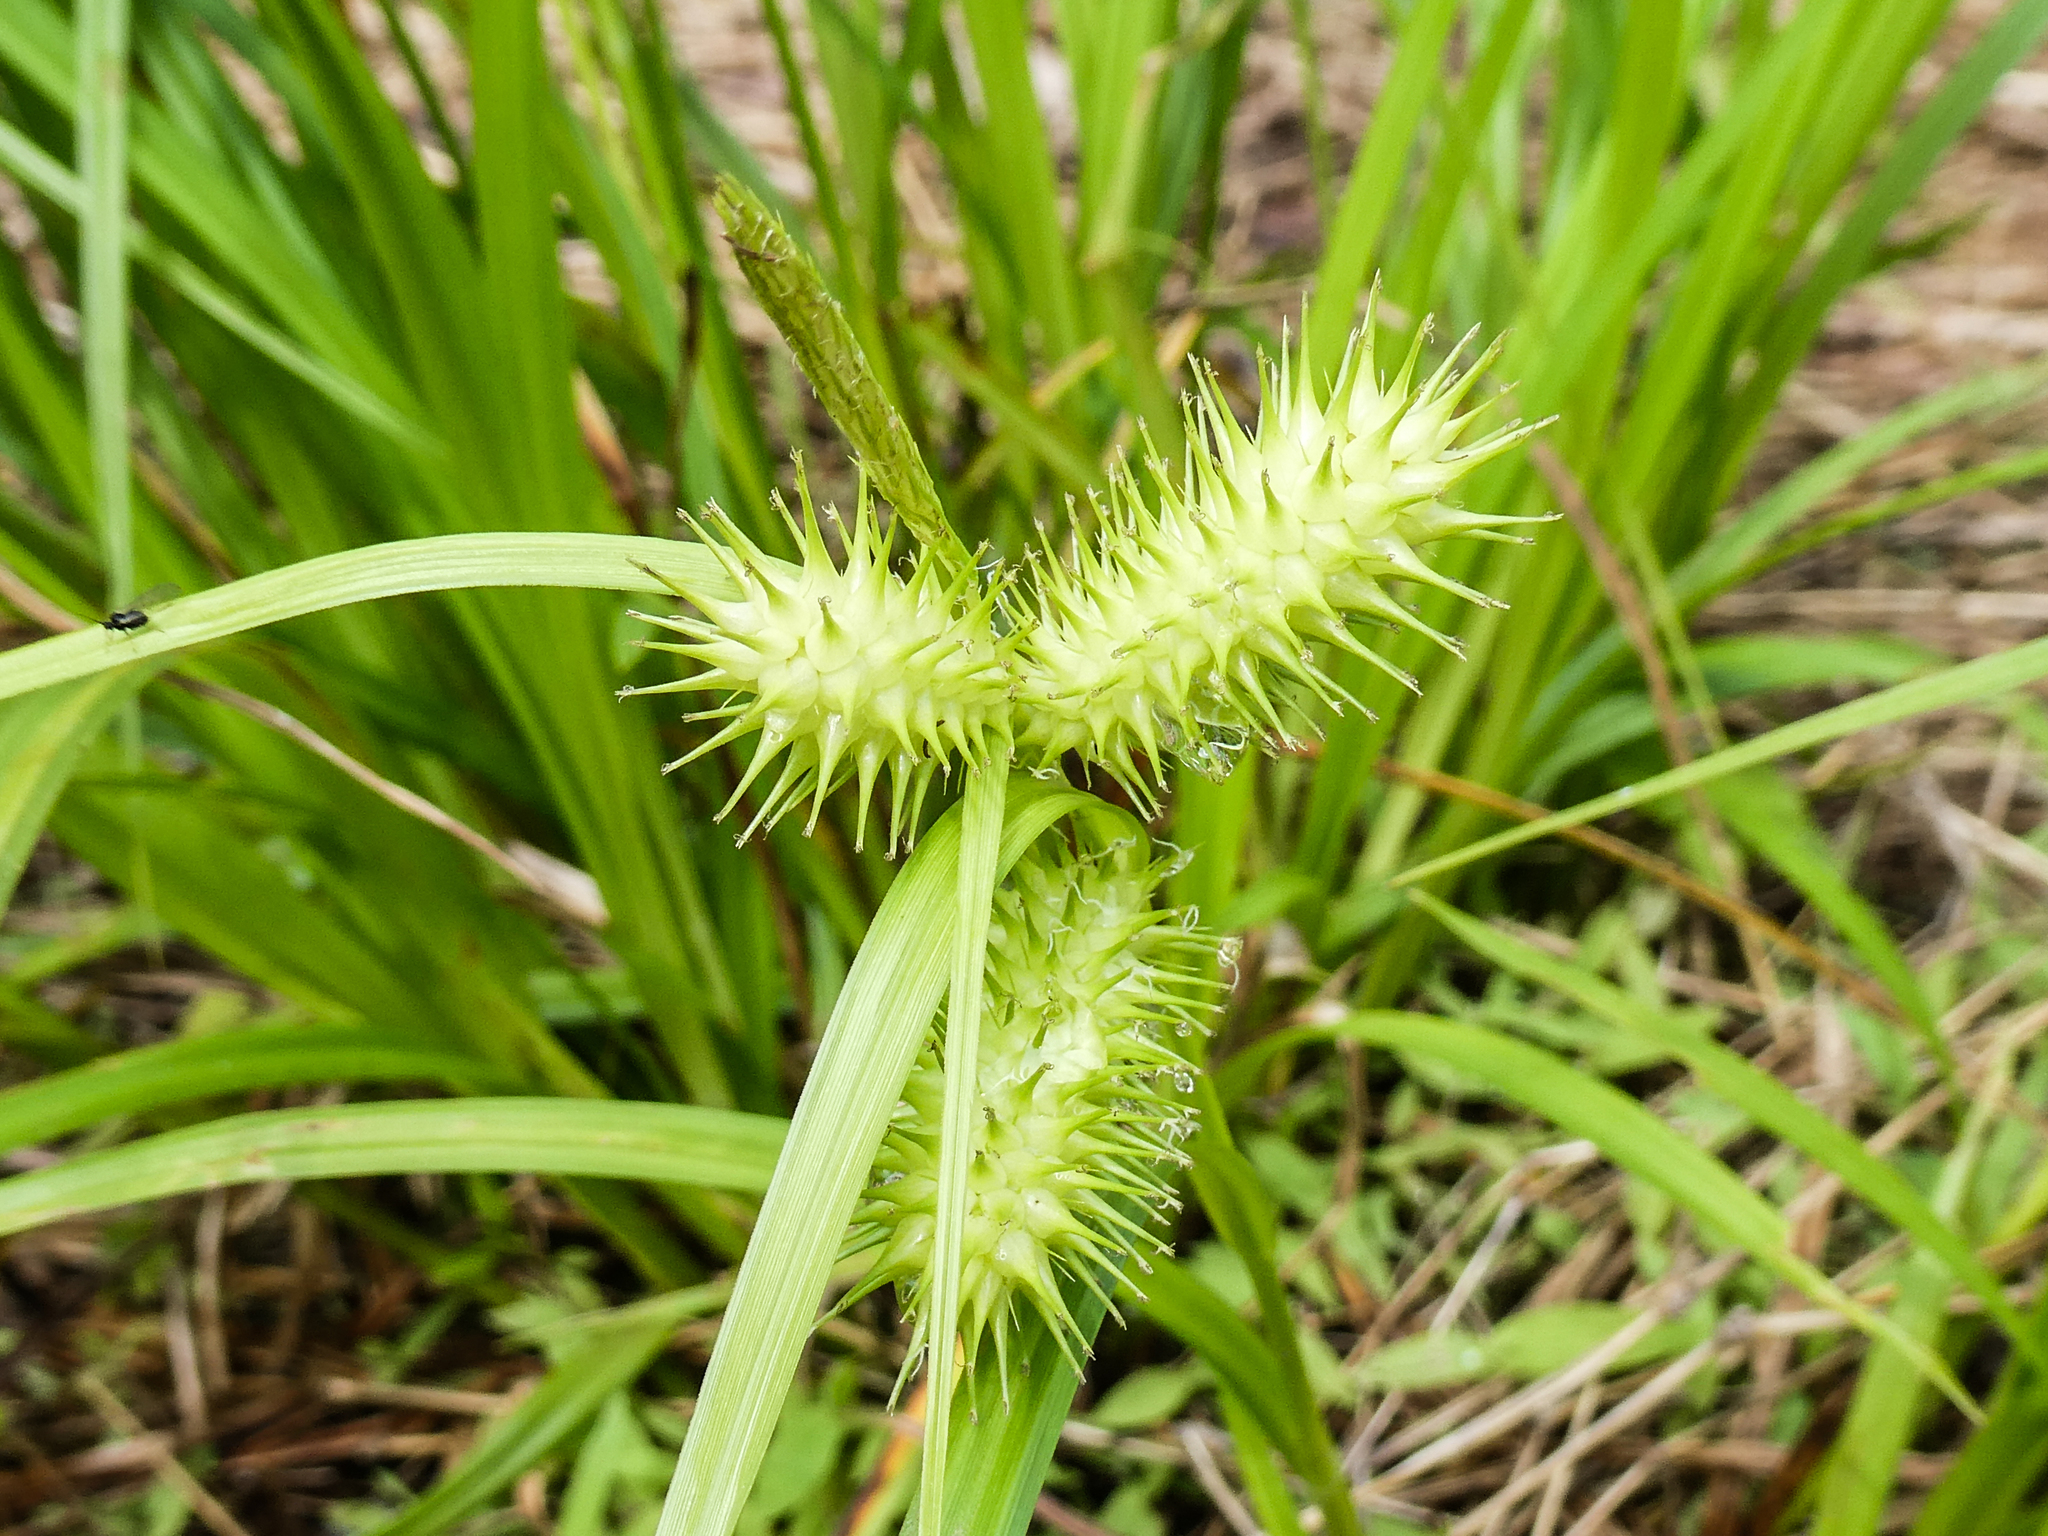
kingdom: Plantae
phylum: Tracheophyta
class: Liliopsida
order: Poales
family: Cyperaceae
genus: Carex
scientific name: Carex lurida
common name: Sallow sedge
